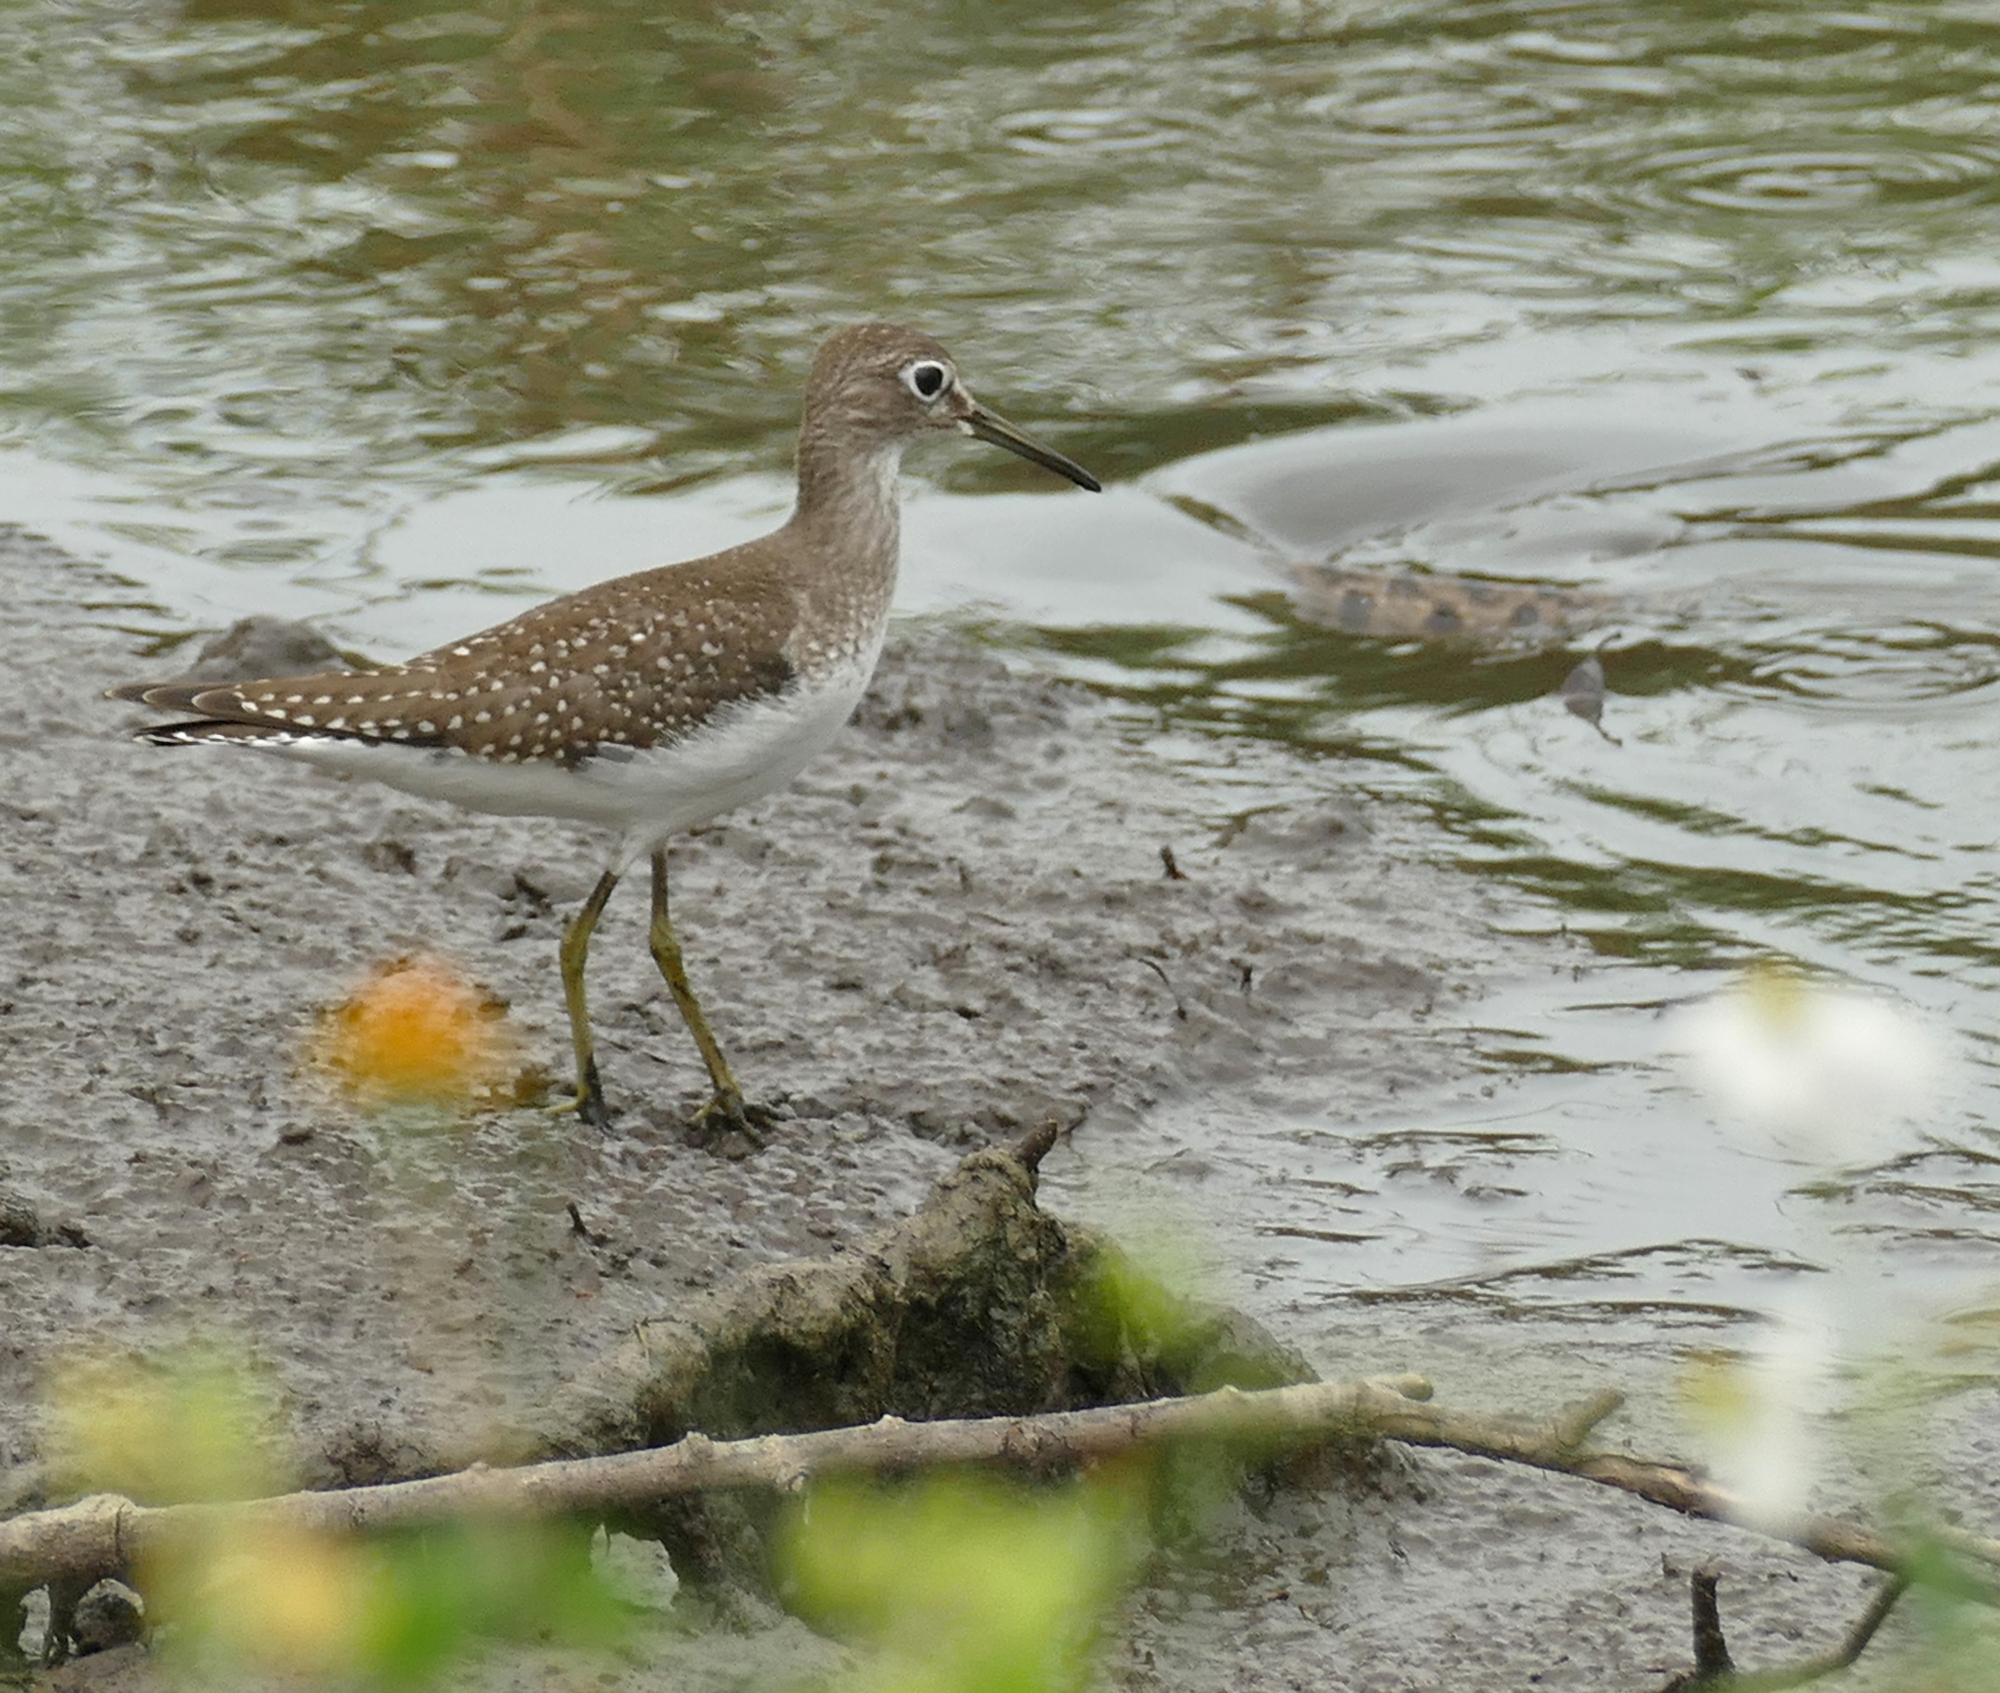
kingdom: Animalia
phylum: Chordata
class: Aves
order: Charadriiformes
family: Scolopacidae
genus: Tringa
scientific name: Tringa solitaria
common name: Solitary sandpiper
